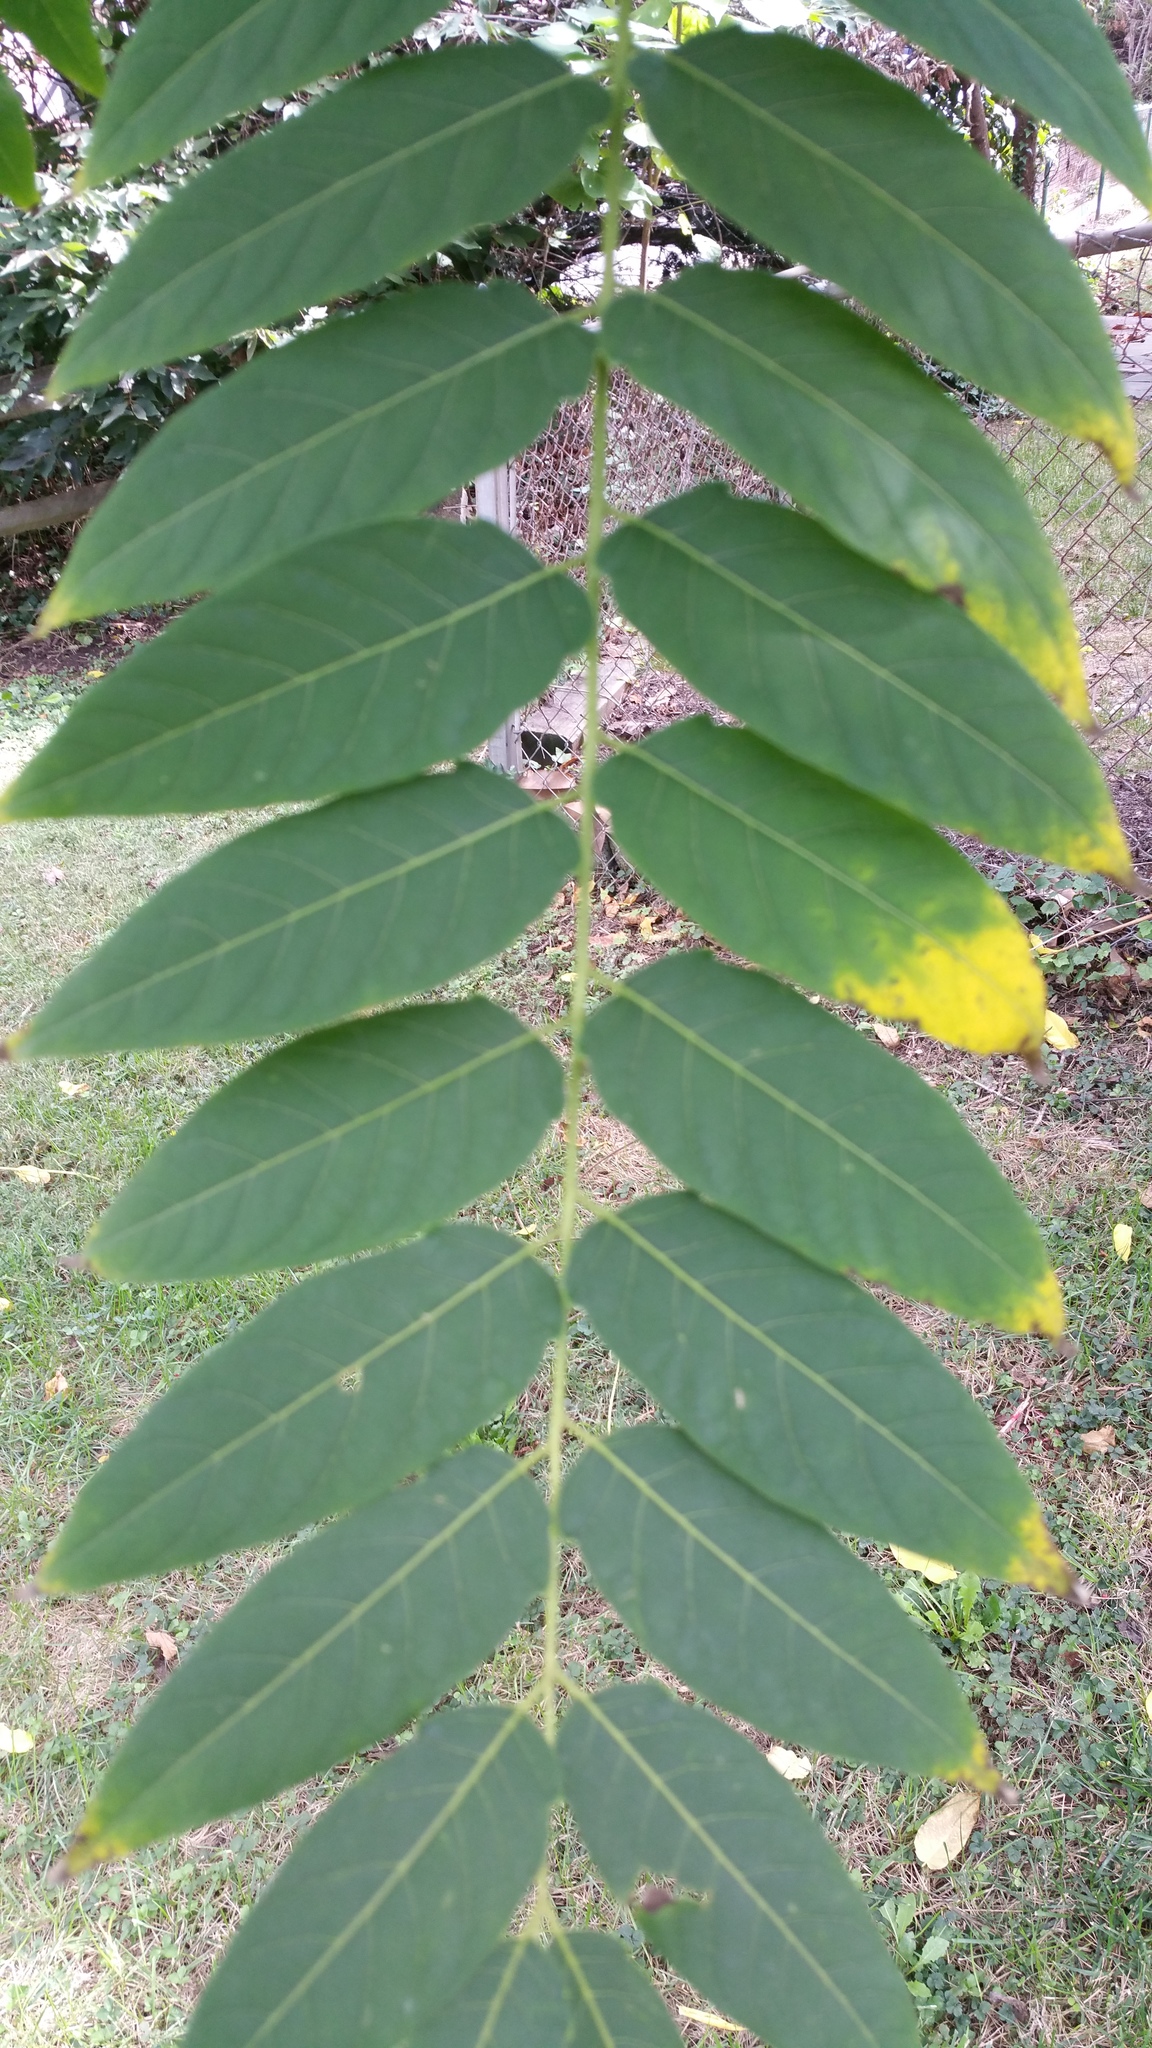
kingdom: Plantae
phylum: Tracheophyta
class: Magnoliopsida
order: Sapindales
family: Simaroubaceae
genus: Ailanthus
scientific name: Ailanthus altissima
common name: Tree-of-heaven
